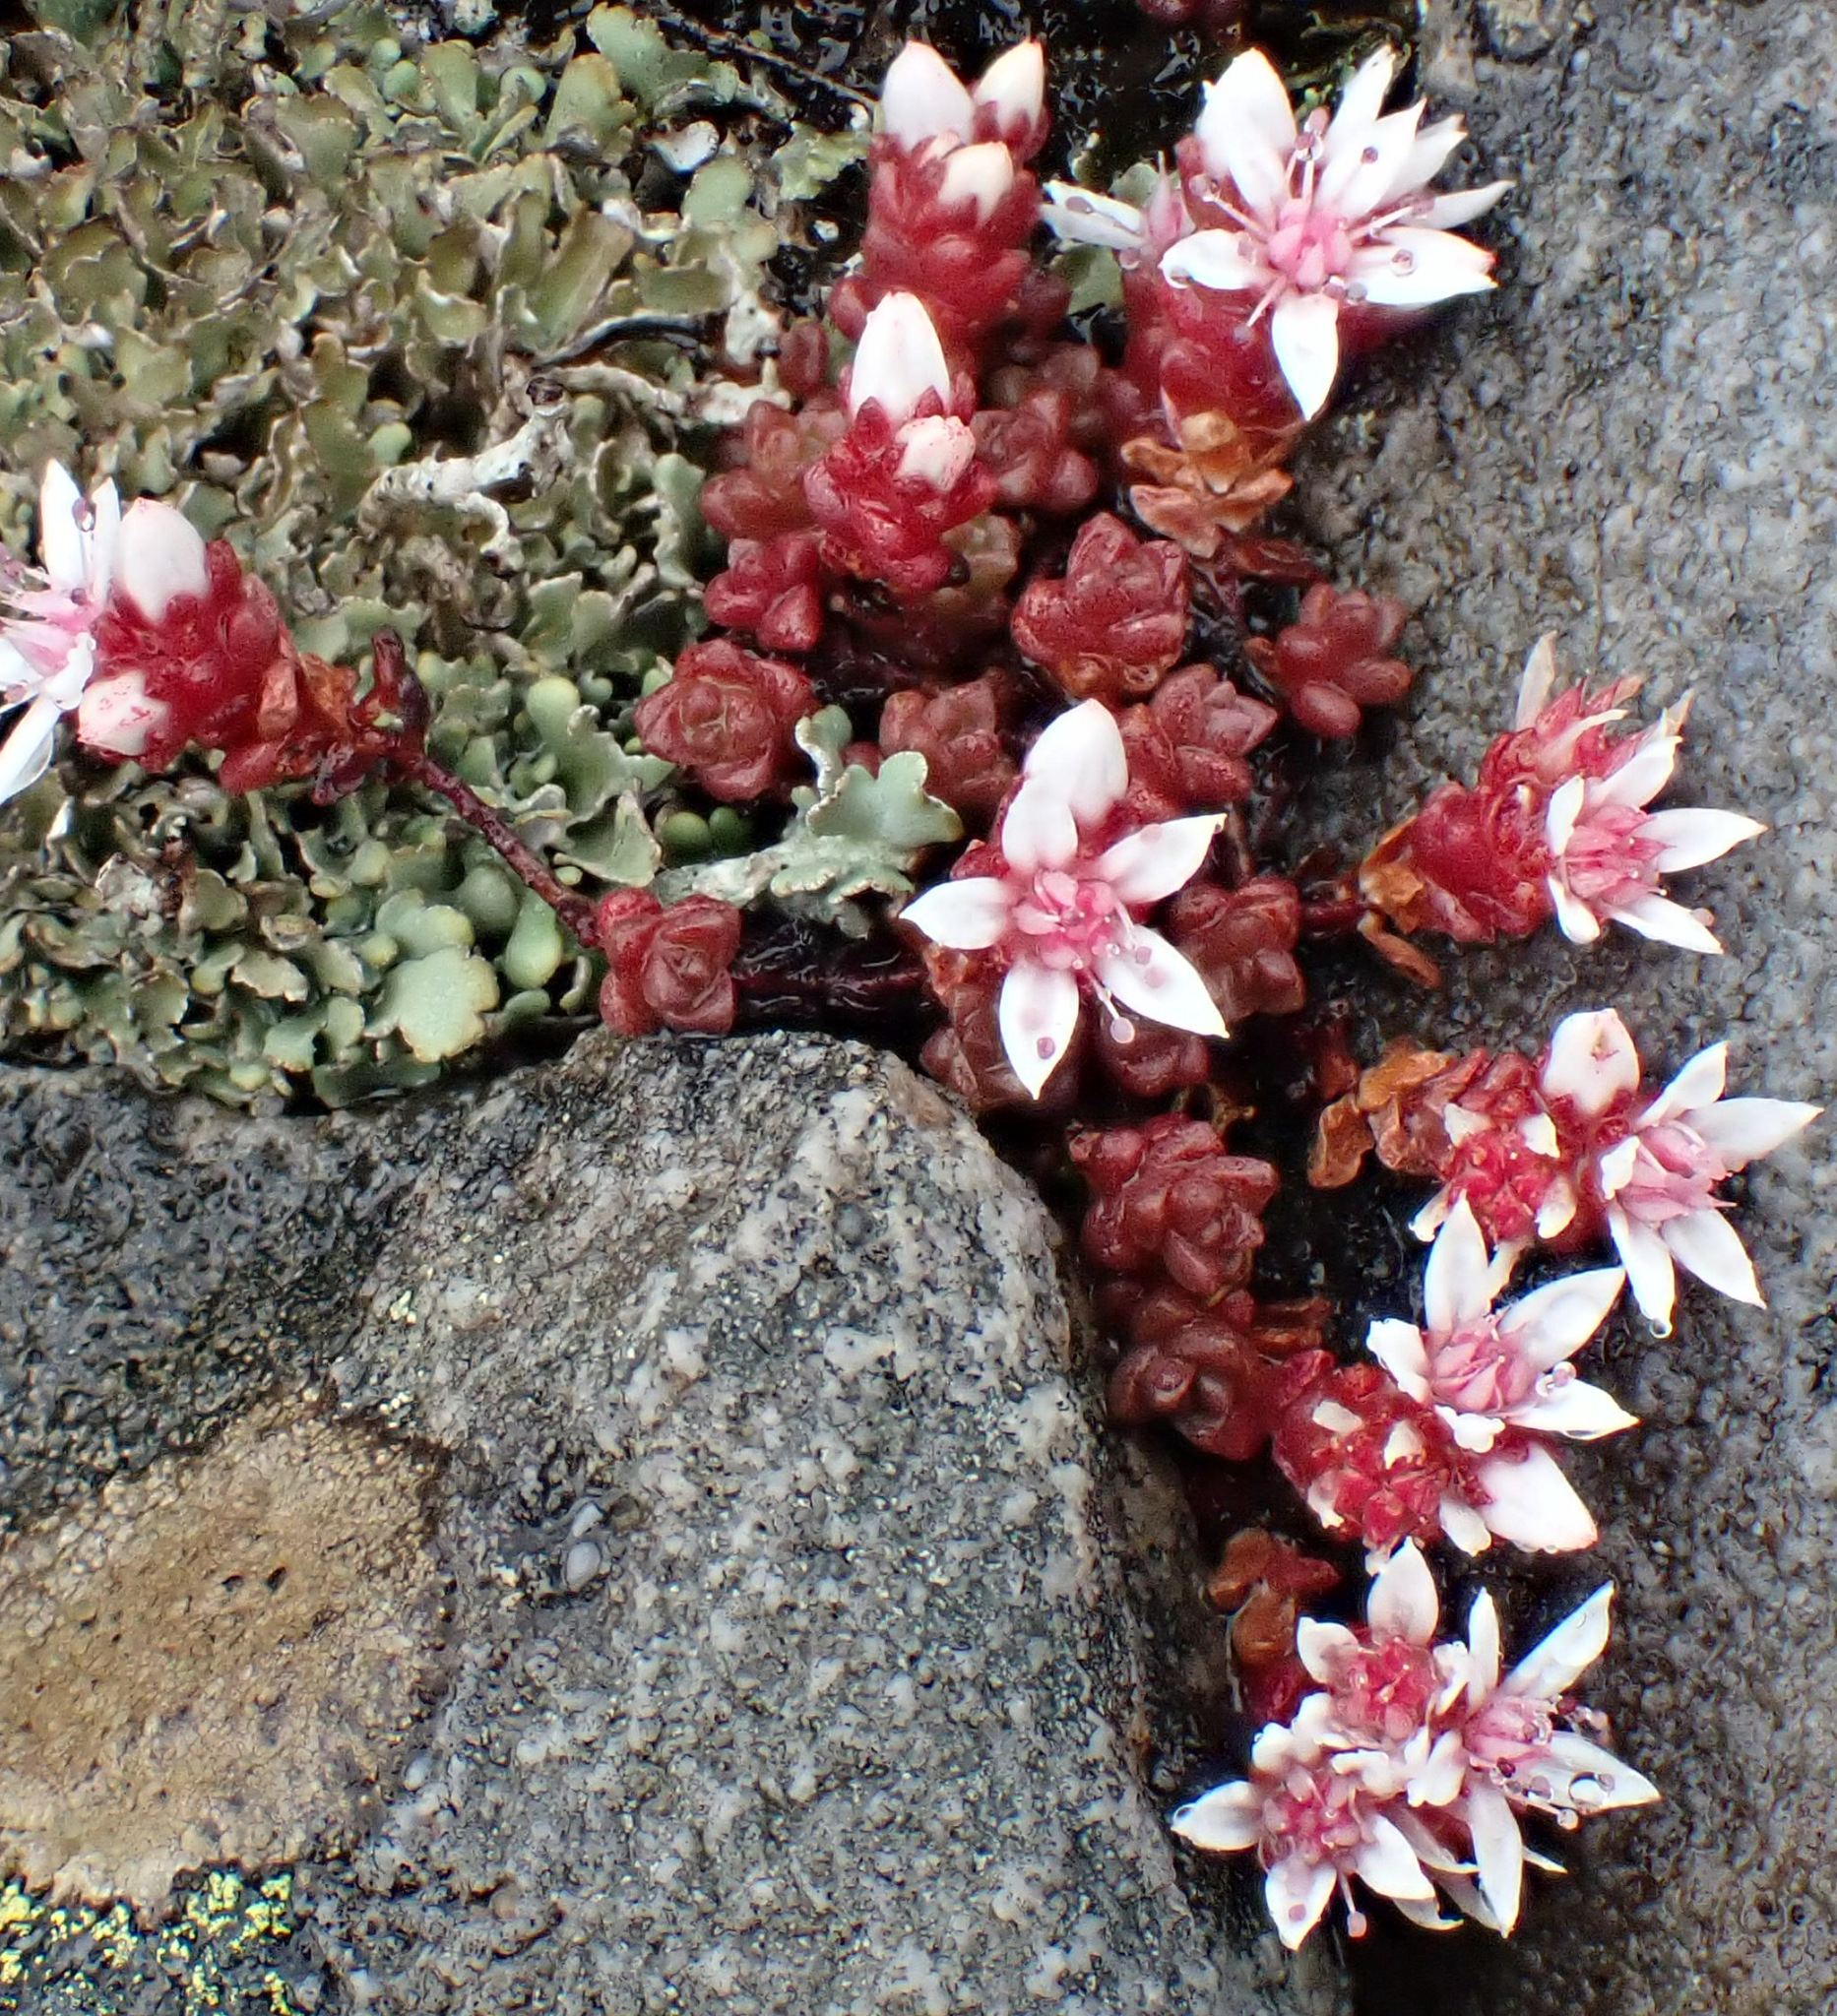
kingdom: Plantae
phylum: Tracheophyta
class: Magnoliopsida
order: Saxifragales
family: Crassulaceae
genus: Sedum
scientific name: Sedum anglicum
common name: English stonecrop
